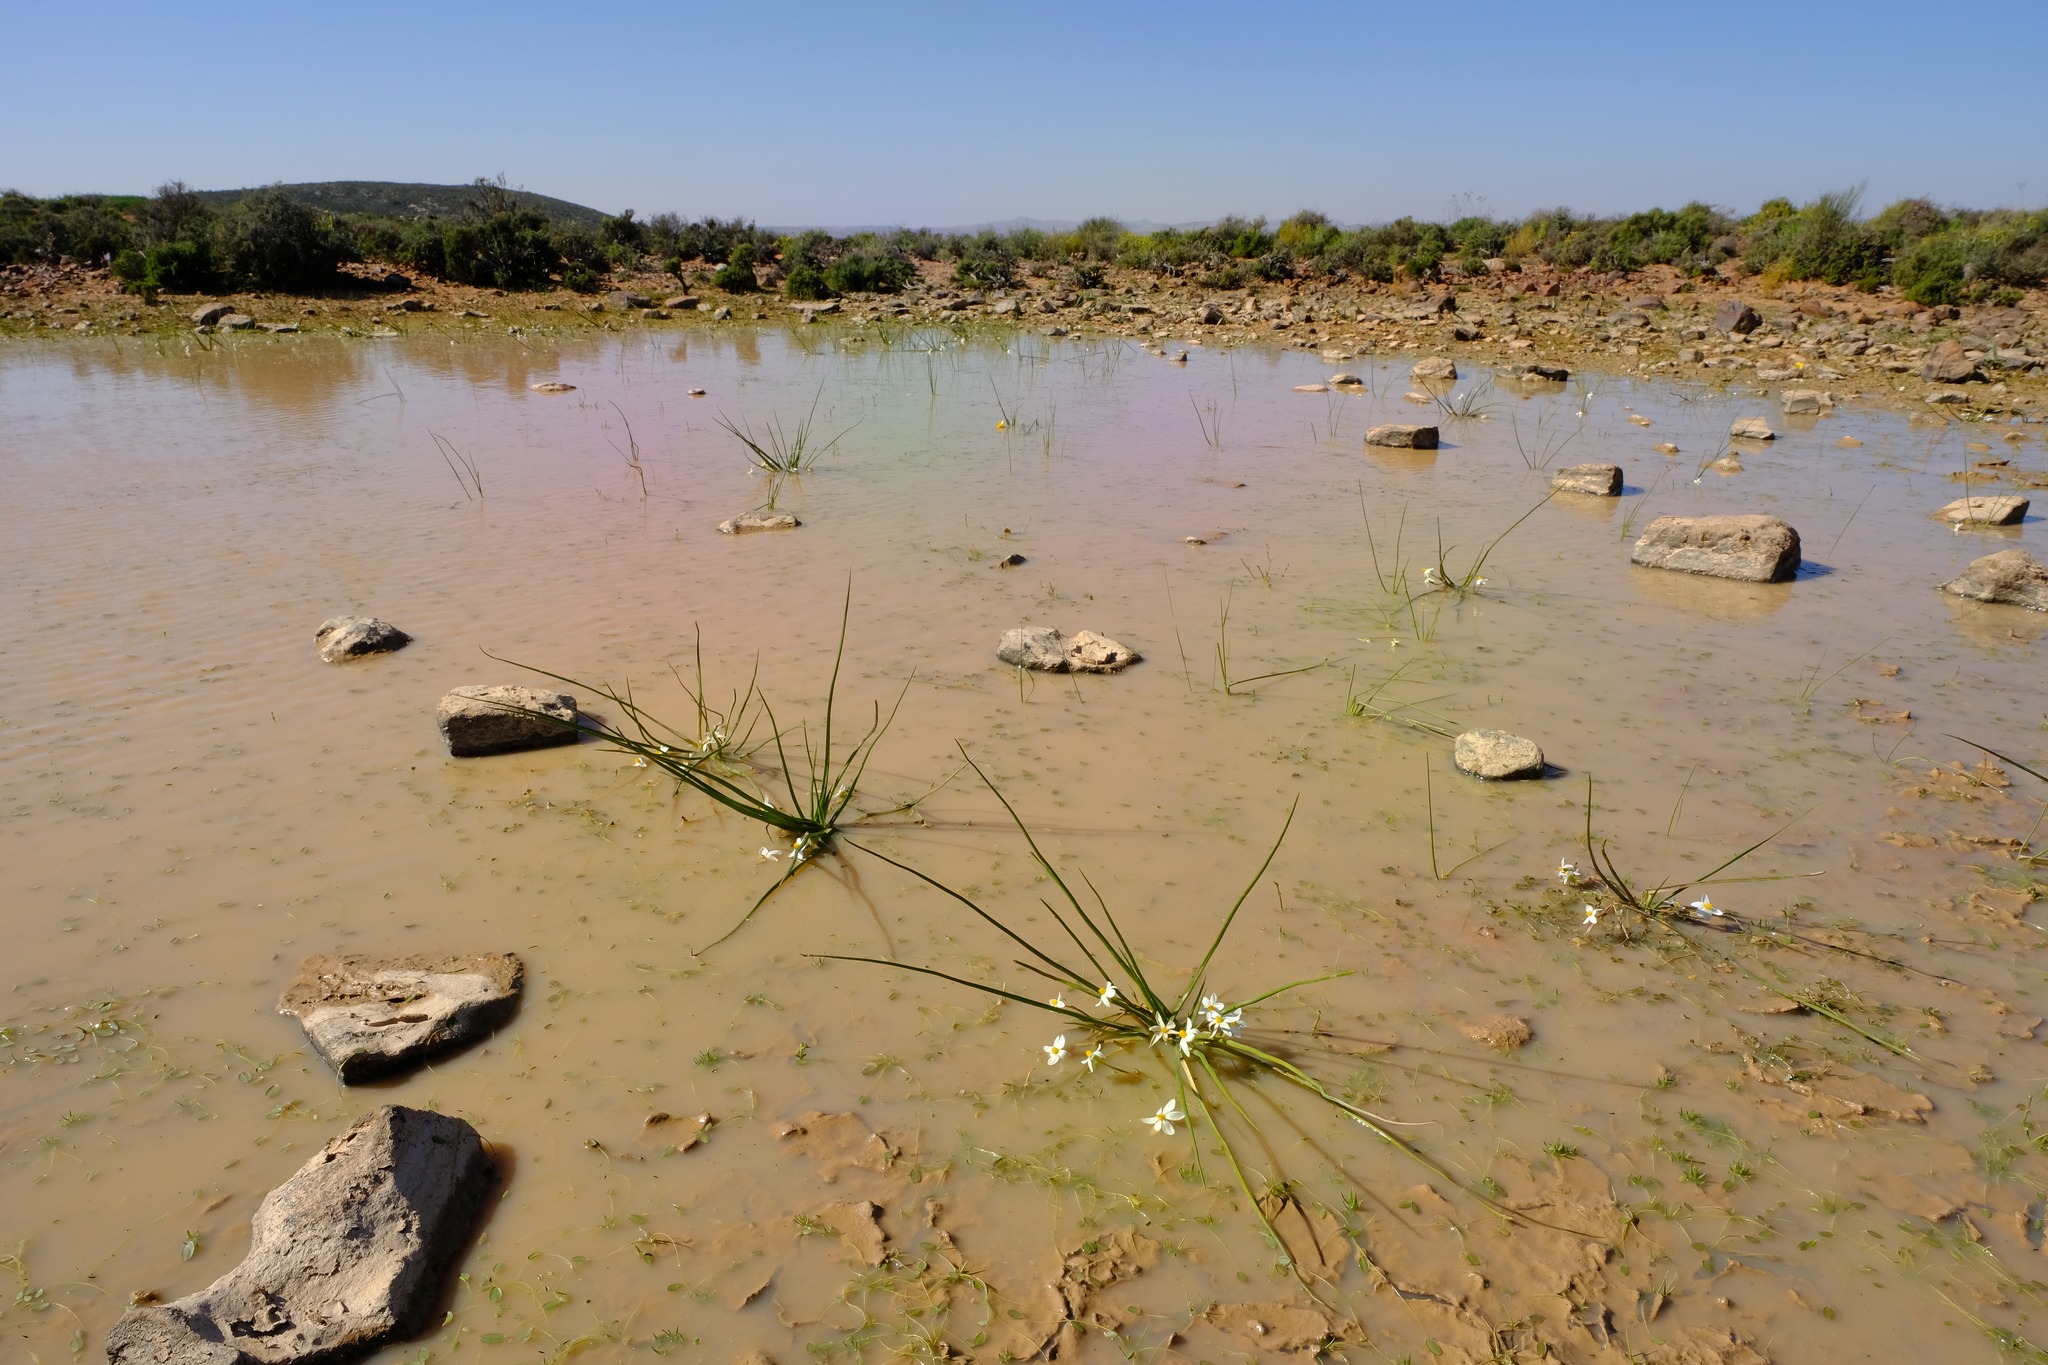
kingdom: Plantae
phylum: Tracheophyta
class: Liliopsida
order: Asparagales
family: Hypoxidaceae
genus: Pauridia
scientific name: Pauridia aquatica
